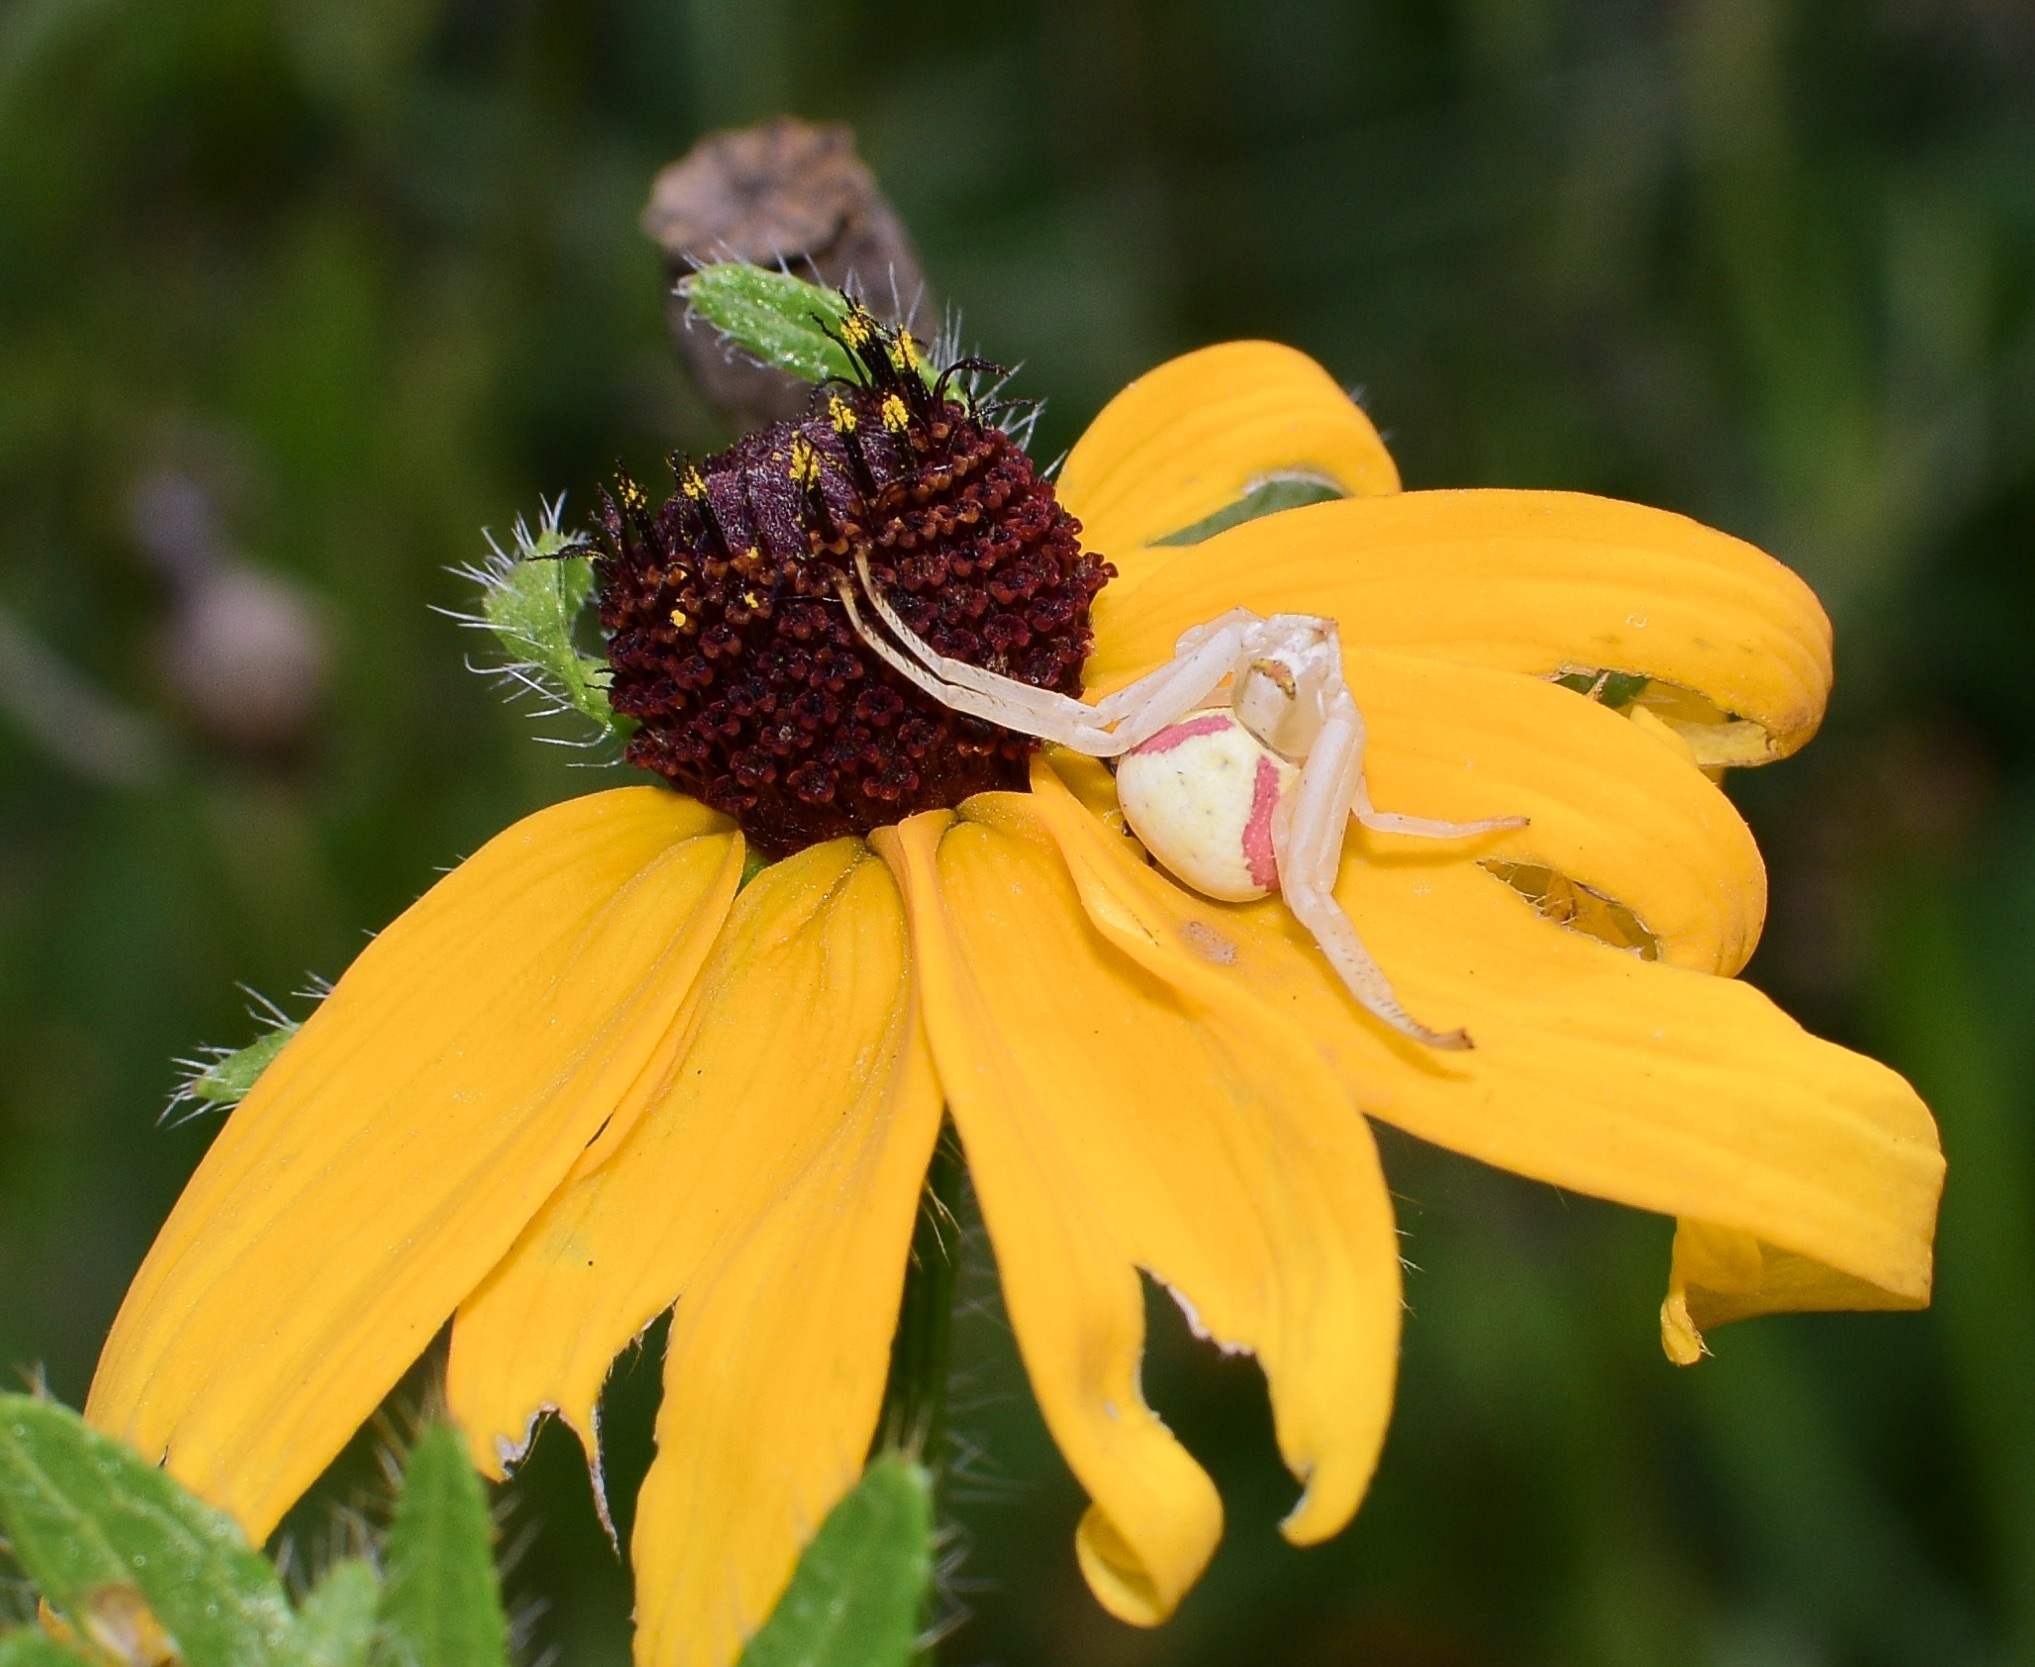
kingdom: Animalia
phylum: Arthropoda
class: Arachnida
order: Araneae
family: Thomisidae
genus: Misumena
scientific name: Misumena vatia
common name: Goldenrod crab spider
